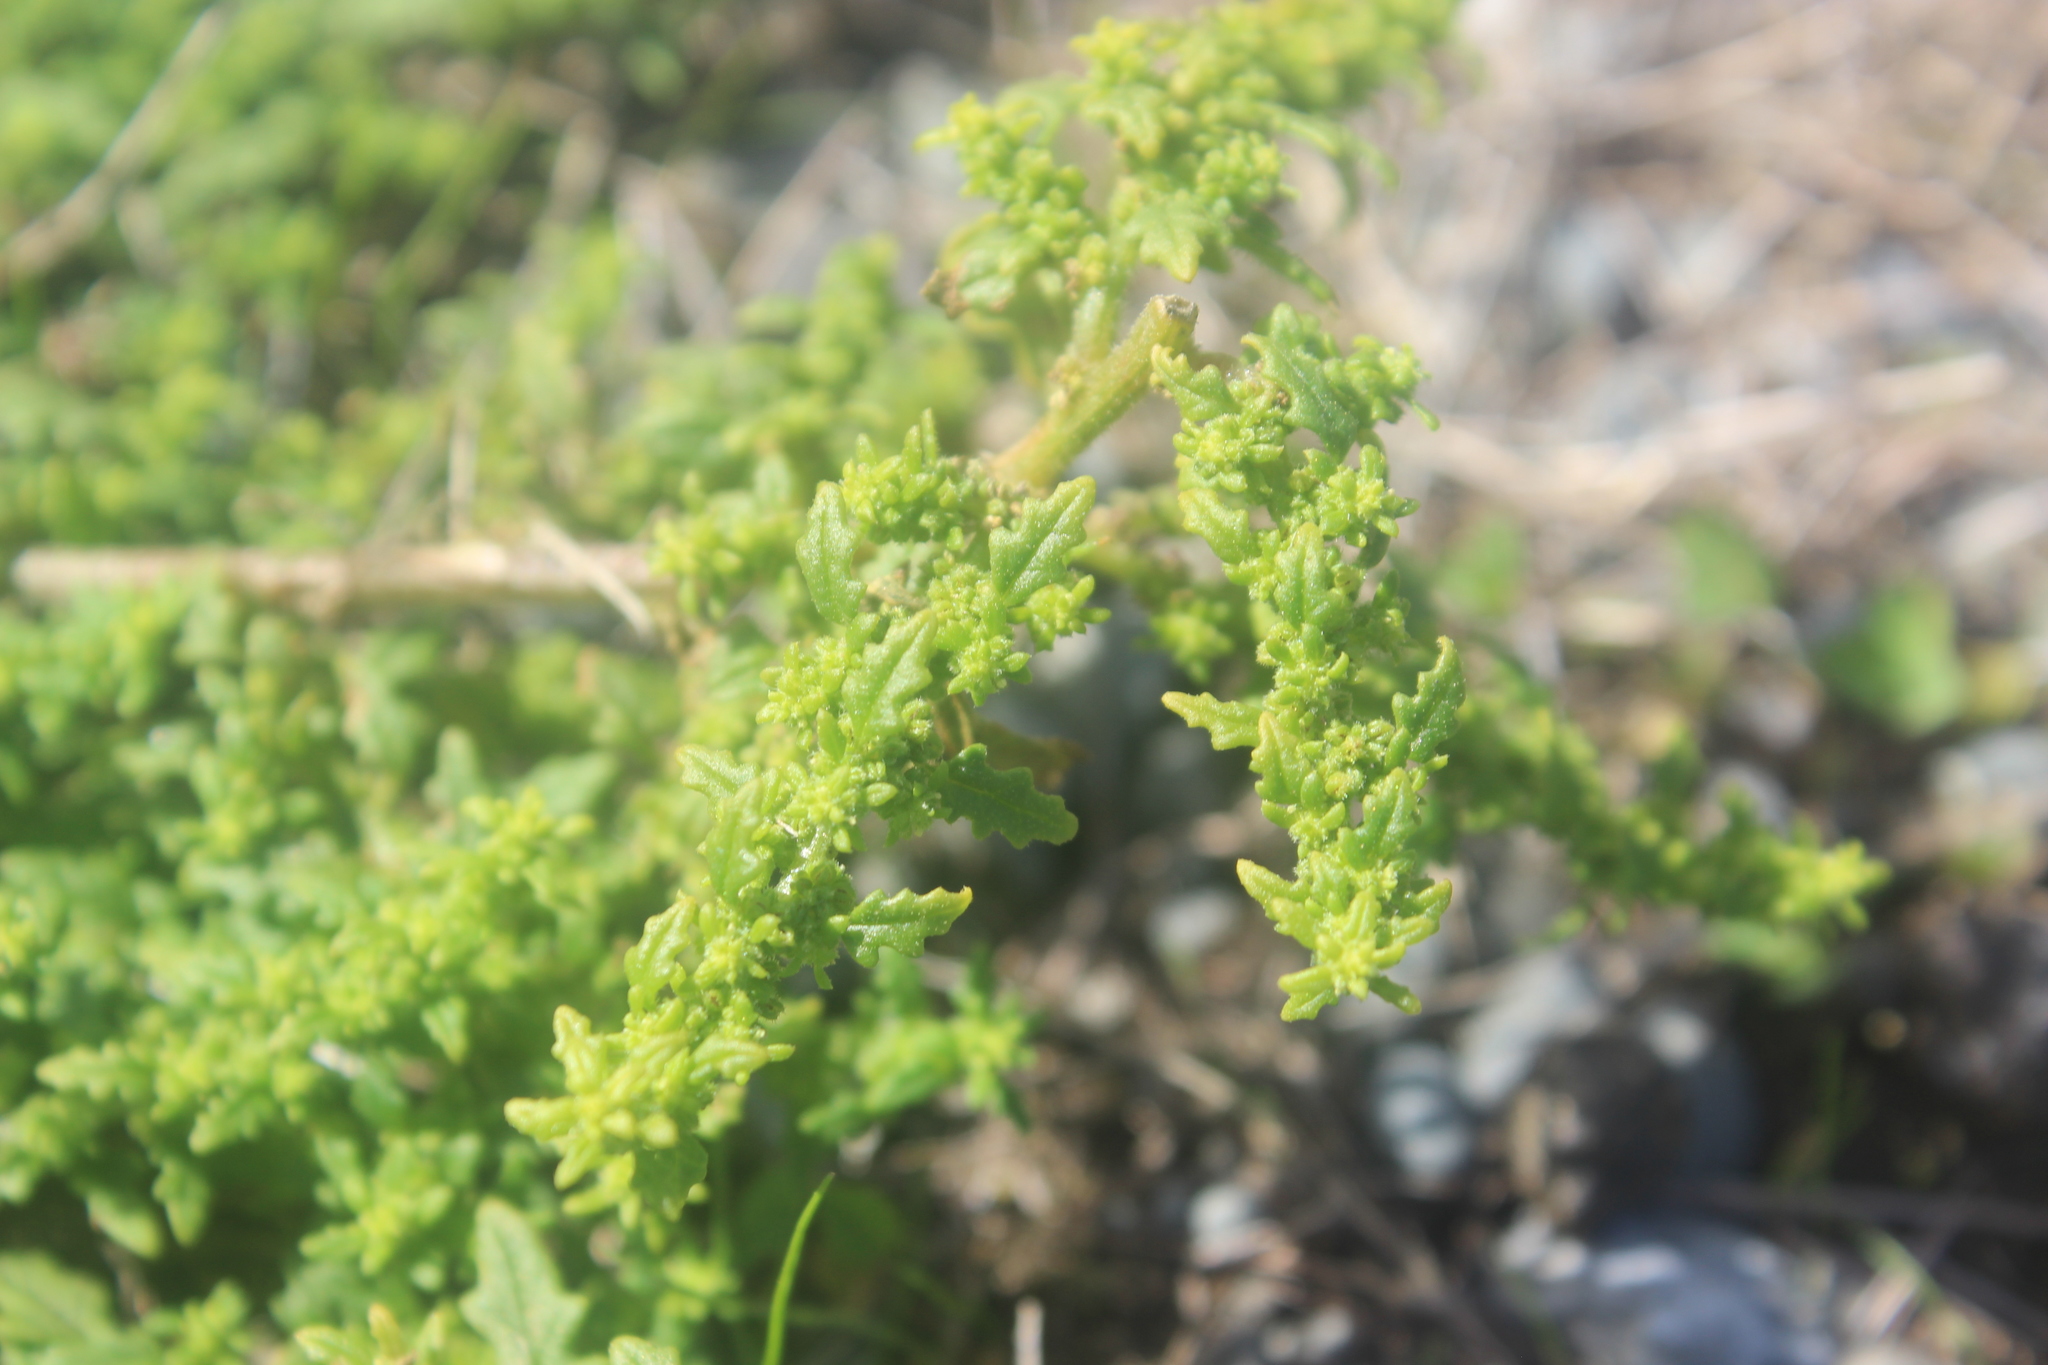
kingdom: Plantae
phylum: Tracheophyta
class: Magnoliopsida
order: Caryophyllales
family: Amaranthaceae
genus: Dysphania
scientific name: Dysphania pumilio
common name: Clammy goosefoot
